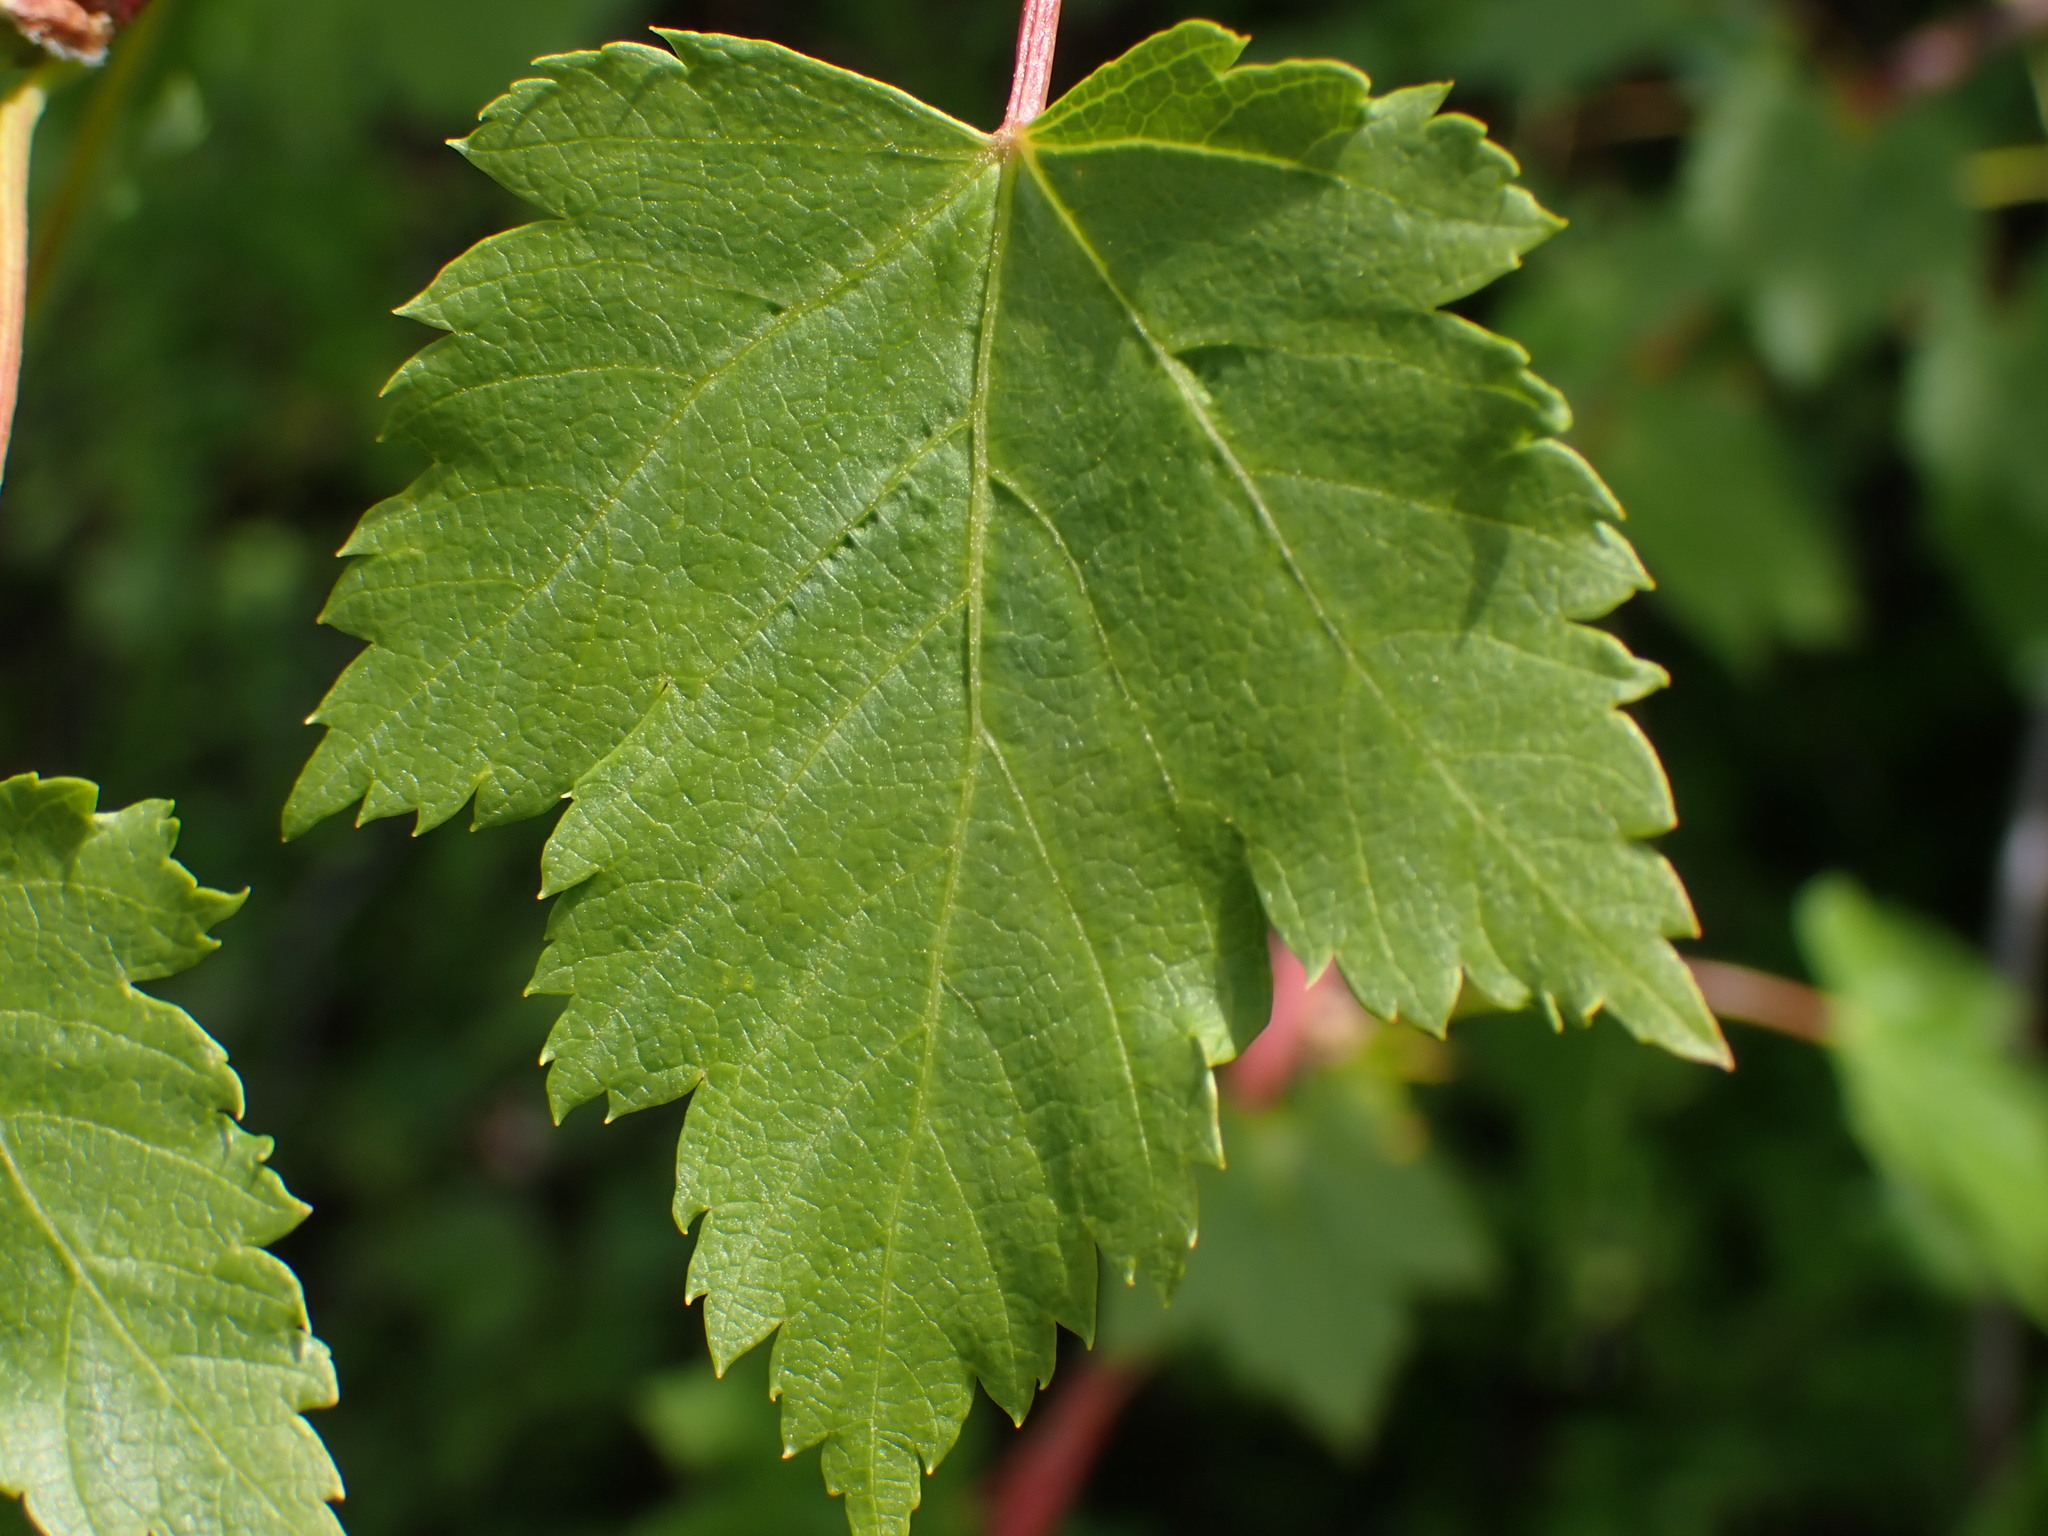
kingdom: Plantae
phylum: Tracheophyta
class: Magnoliopsida
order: Sapindales
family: Sapindaceae
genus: Acer
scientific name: Acer glabrum
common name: Rocky mountain maple
